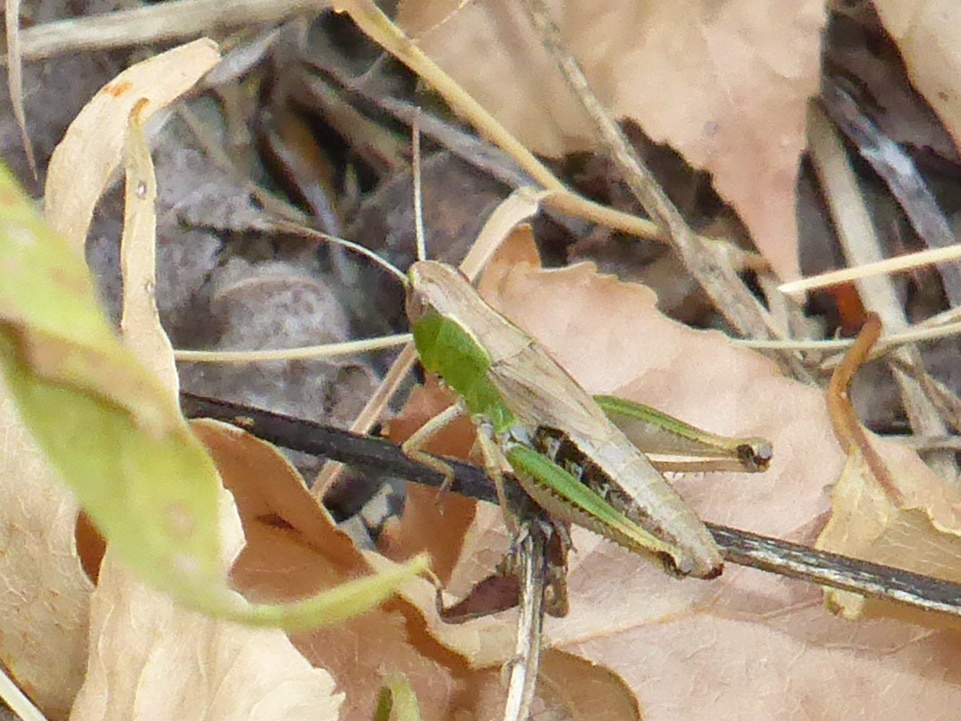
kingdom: Animalia
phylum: Arthropoda
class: Insecta
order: Orthoptera
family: Acrididae
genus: Pseudochorthippus
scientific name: Pseudochorthippus parallelus
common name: Meadow grasshopper
